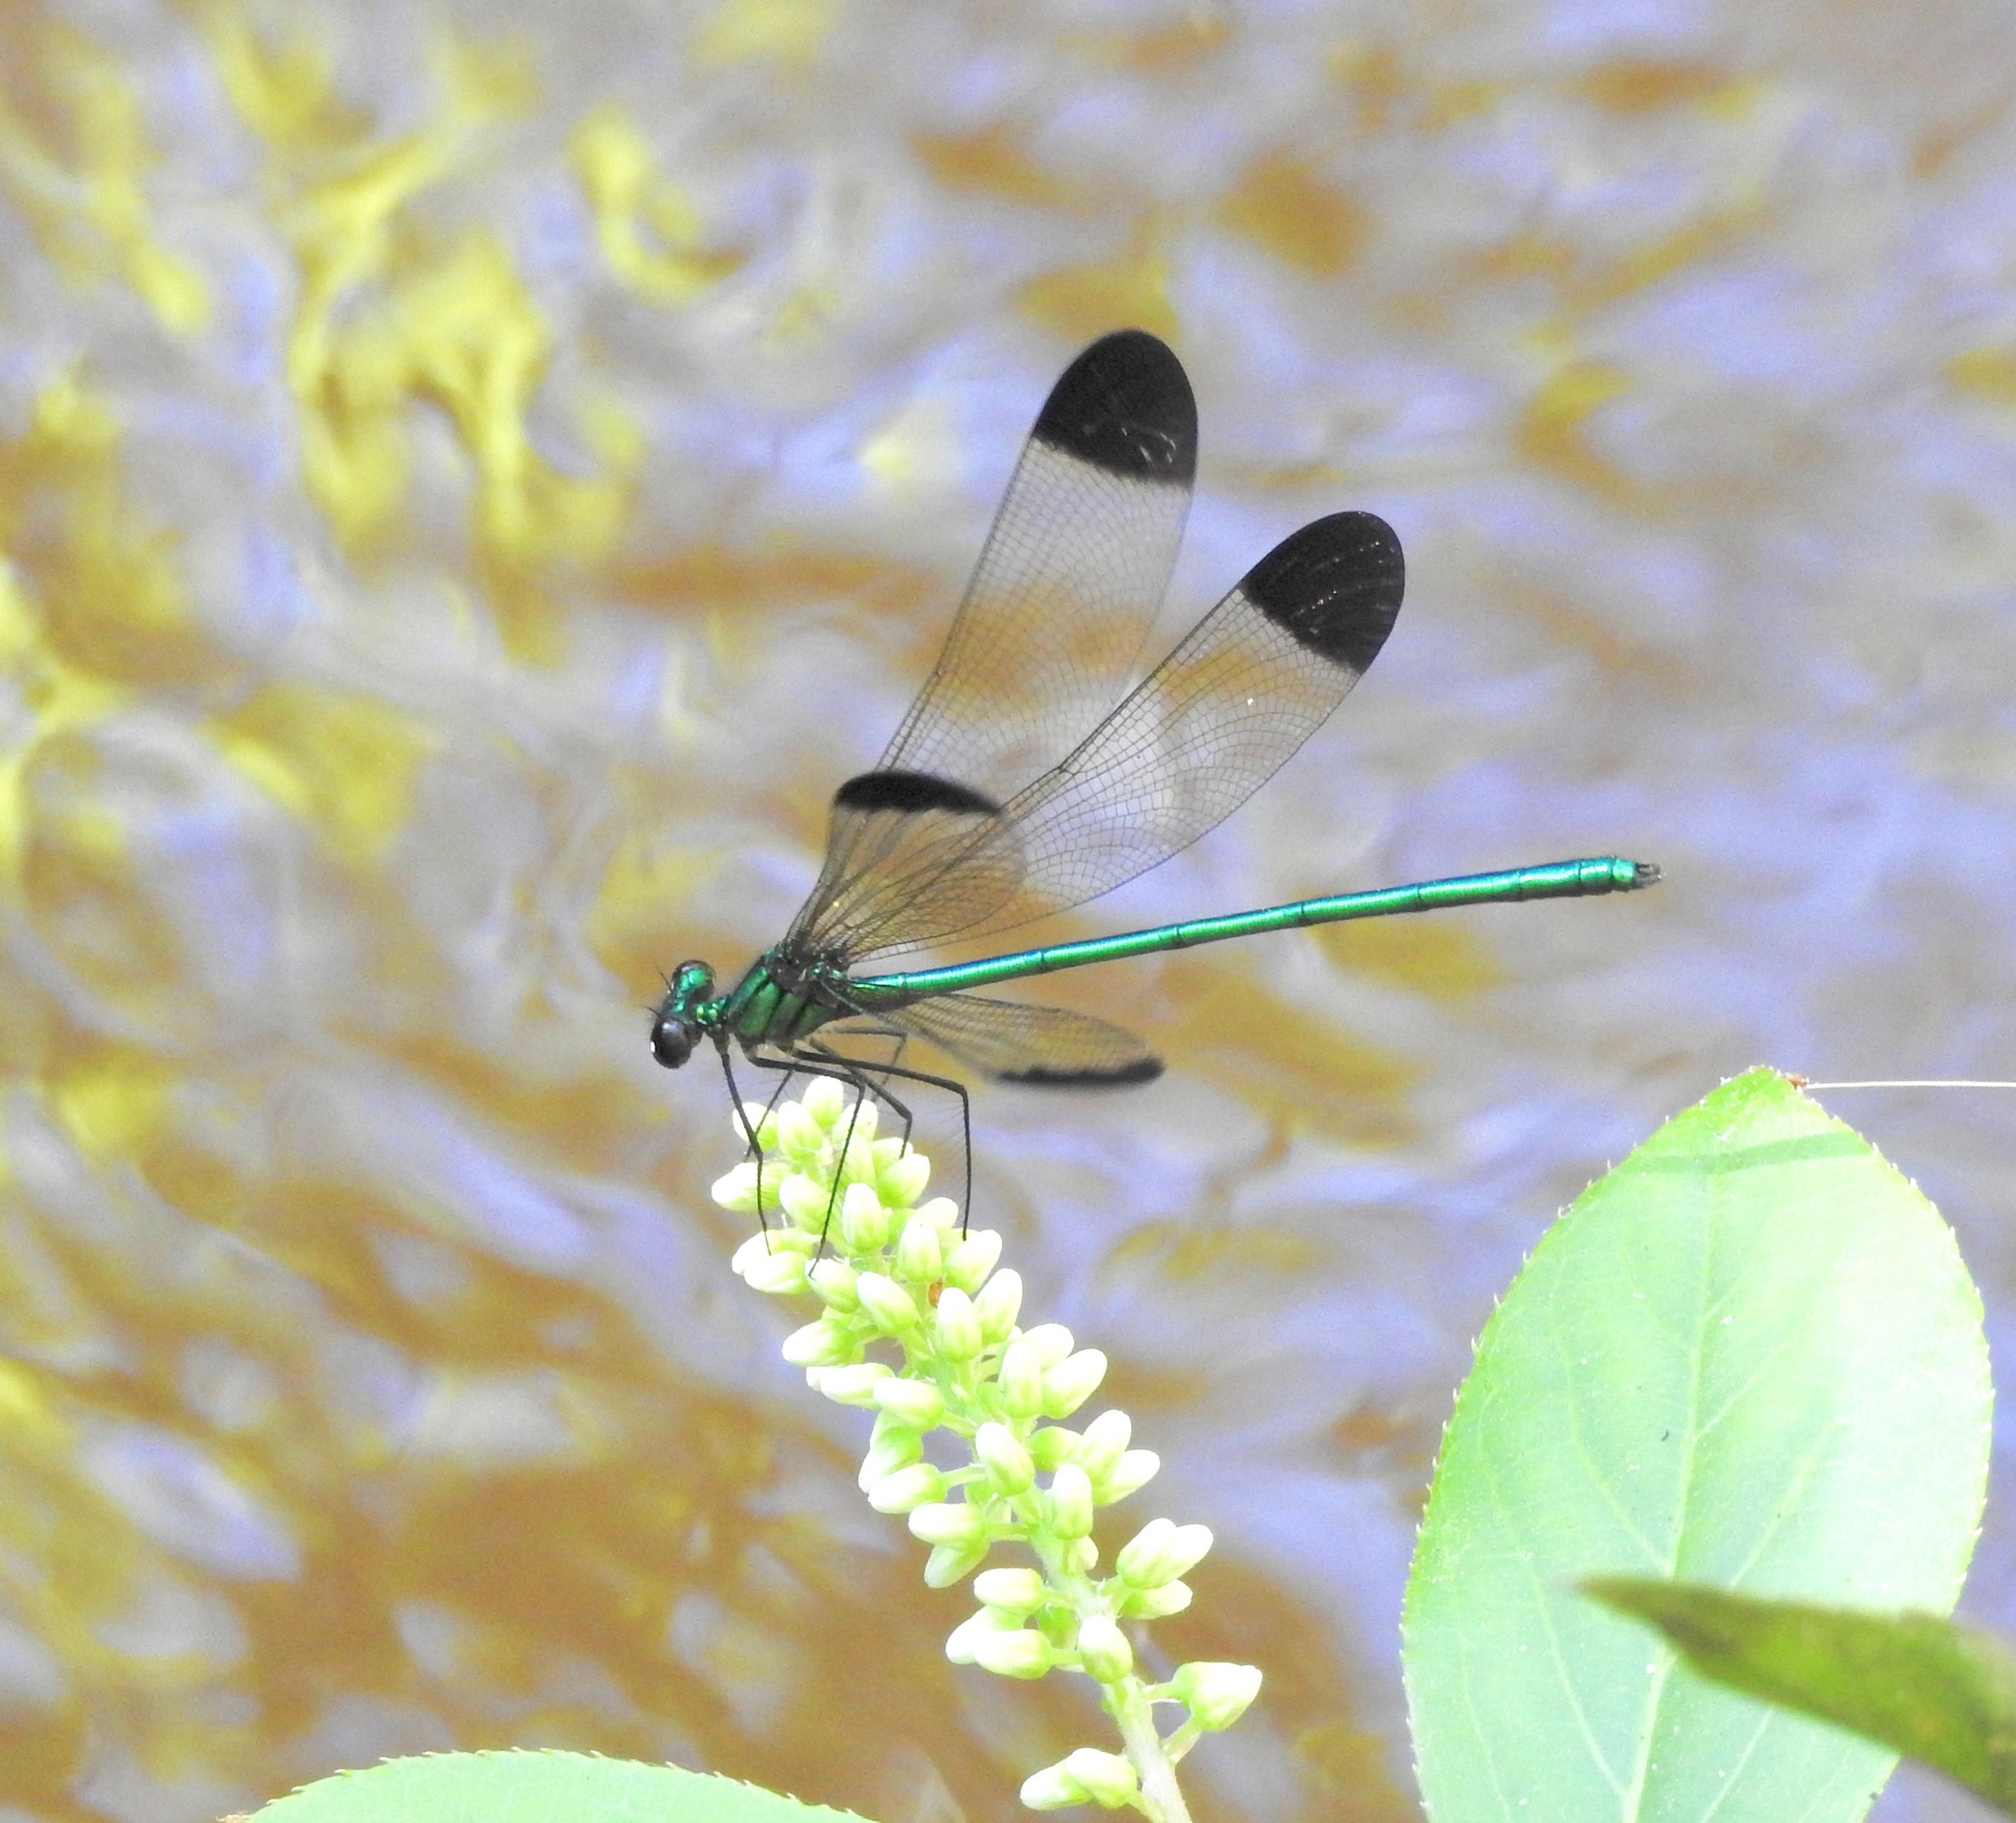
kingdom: Animalia
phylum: Arthropoda
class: Insecta
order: Odonata
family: Calopterygidae
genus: Calopteryx
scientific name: Calopteryx dimidiata
